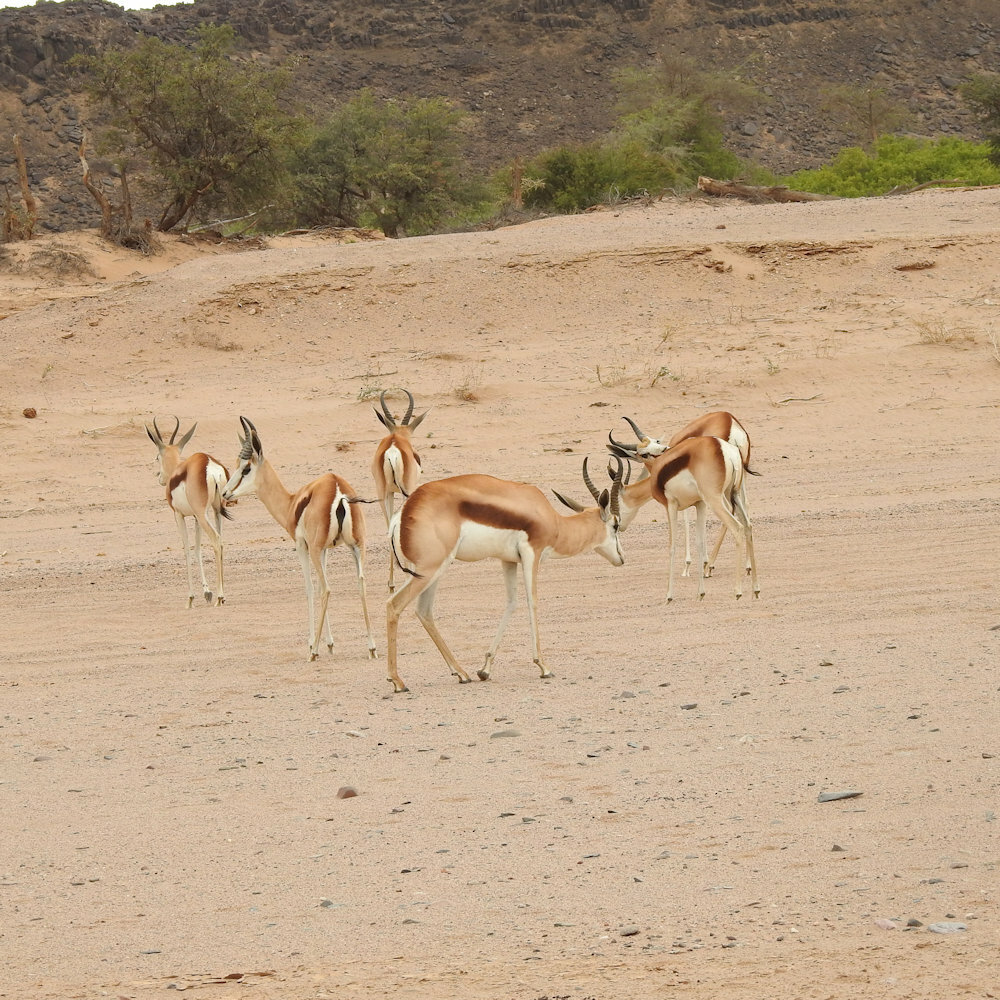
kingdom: Animalia
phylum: Chordata
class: Mammalia
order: Artiodactyla
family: Bovidae
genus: Antidorcas
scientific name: Antidorcas marsupialis
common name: Springbok
